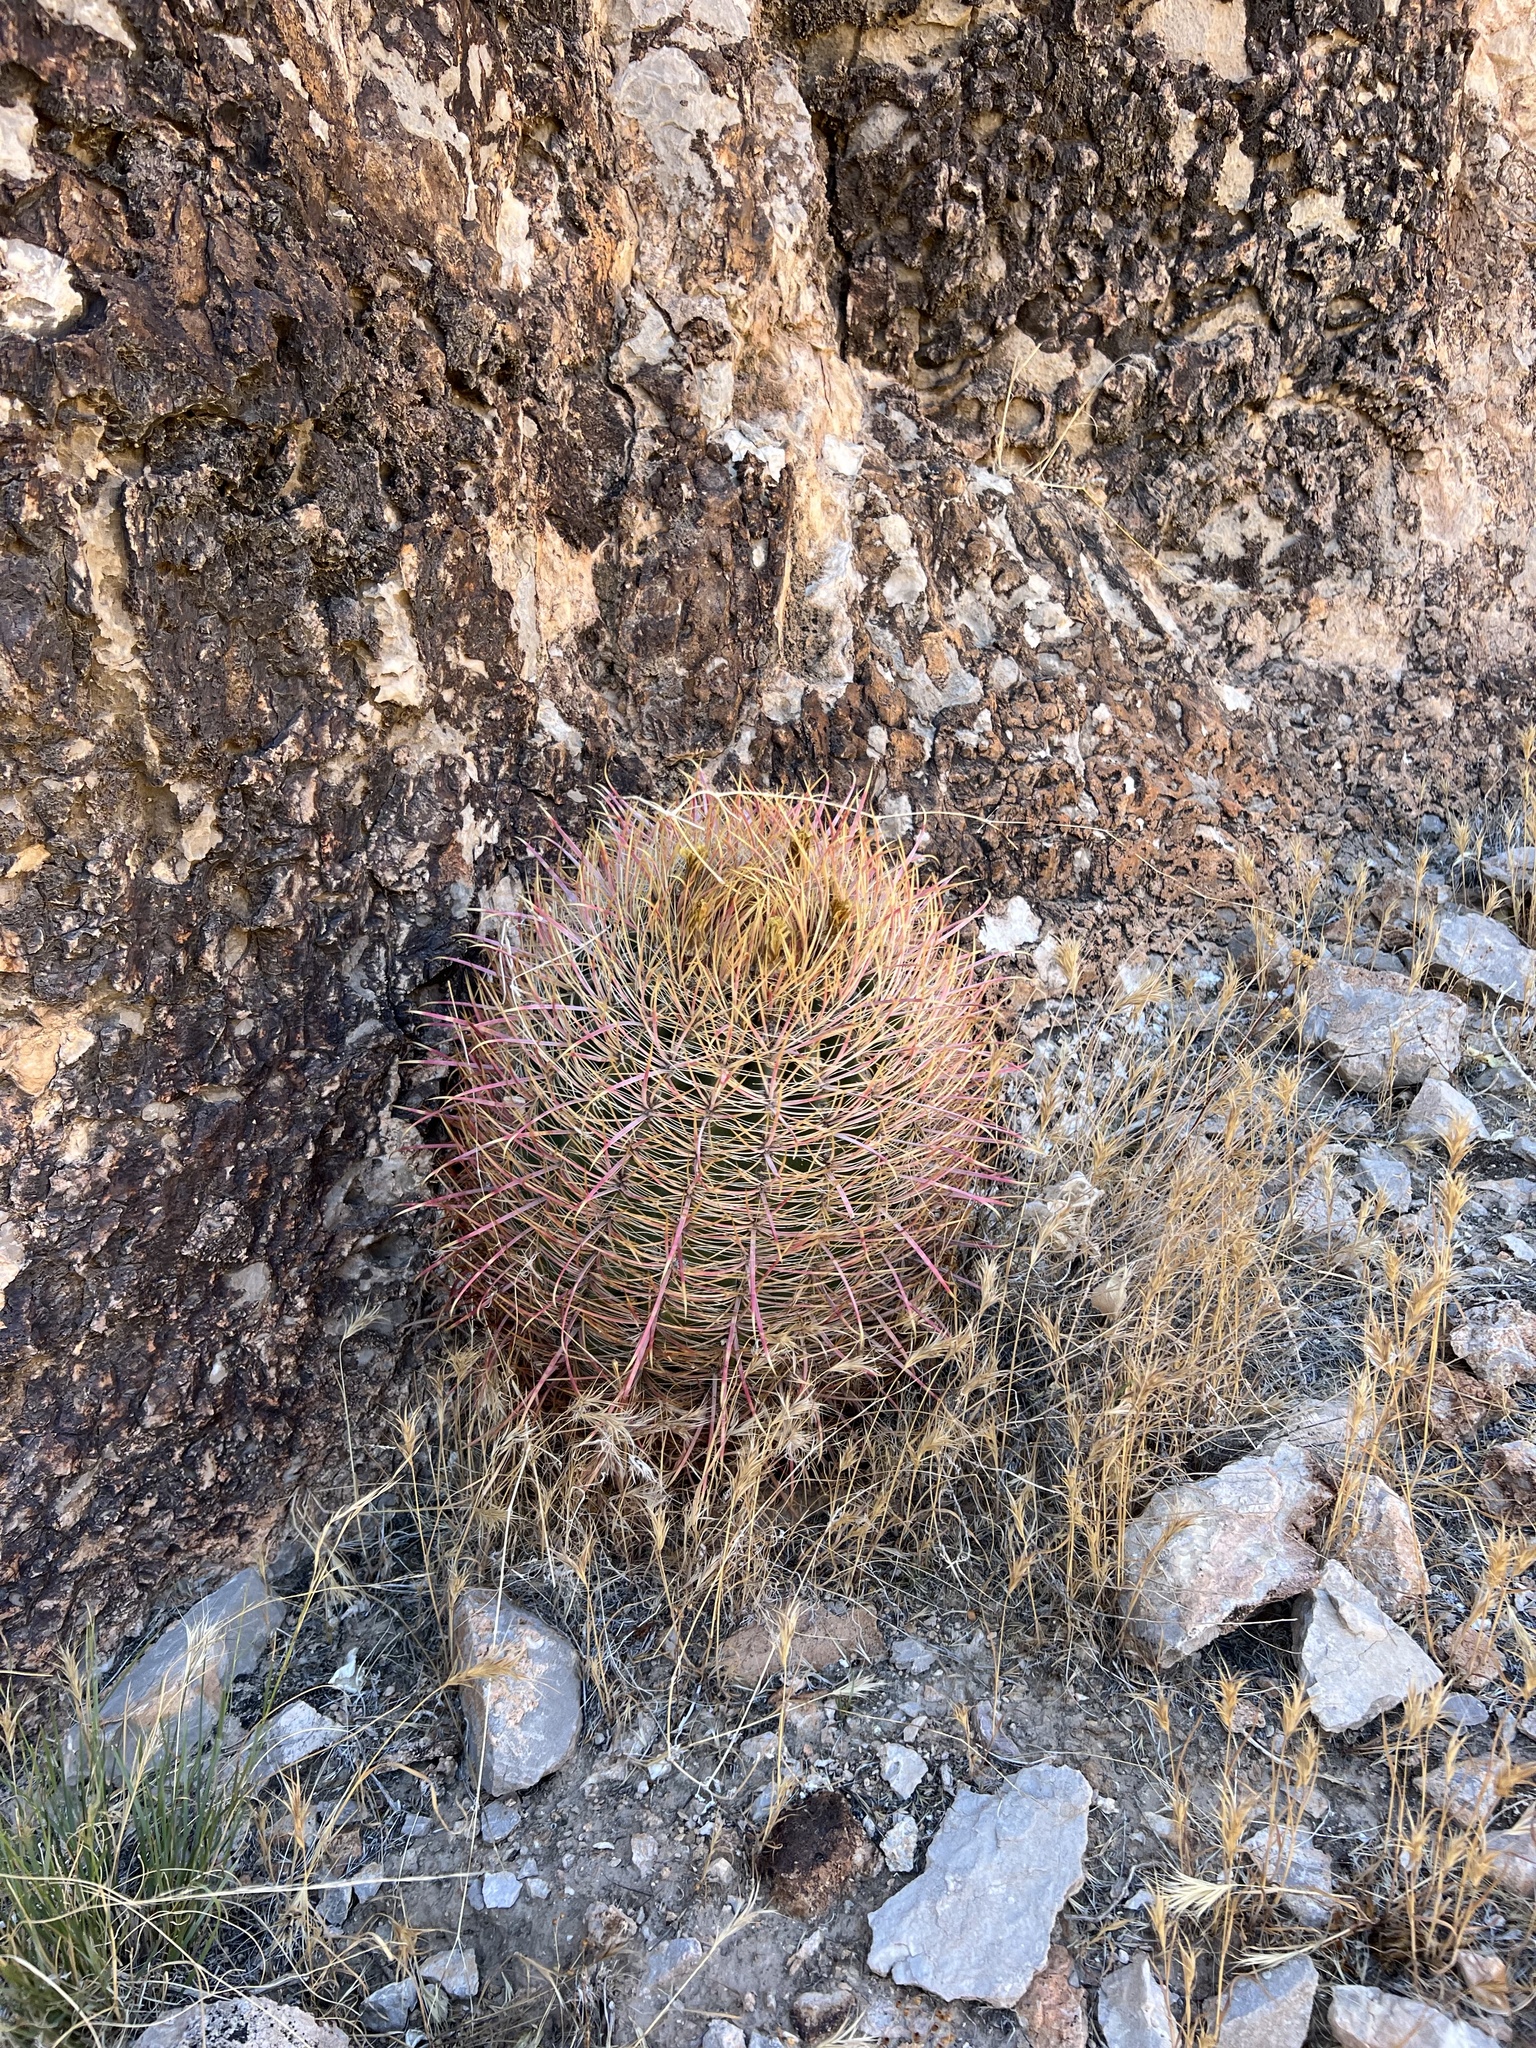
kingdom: Plantae
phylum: Tracheophyta
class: Magnoliopsida
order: Caryophyllales
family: Cactaceae
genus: Ferocactus
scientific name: Ferocactus cylindraceus
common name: California barrel cactus
